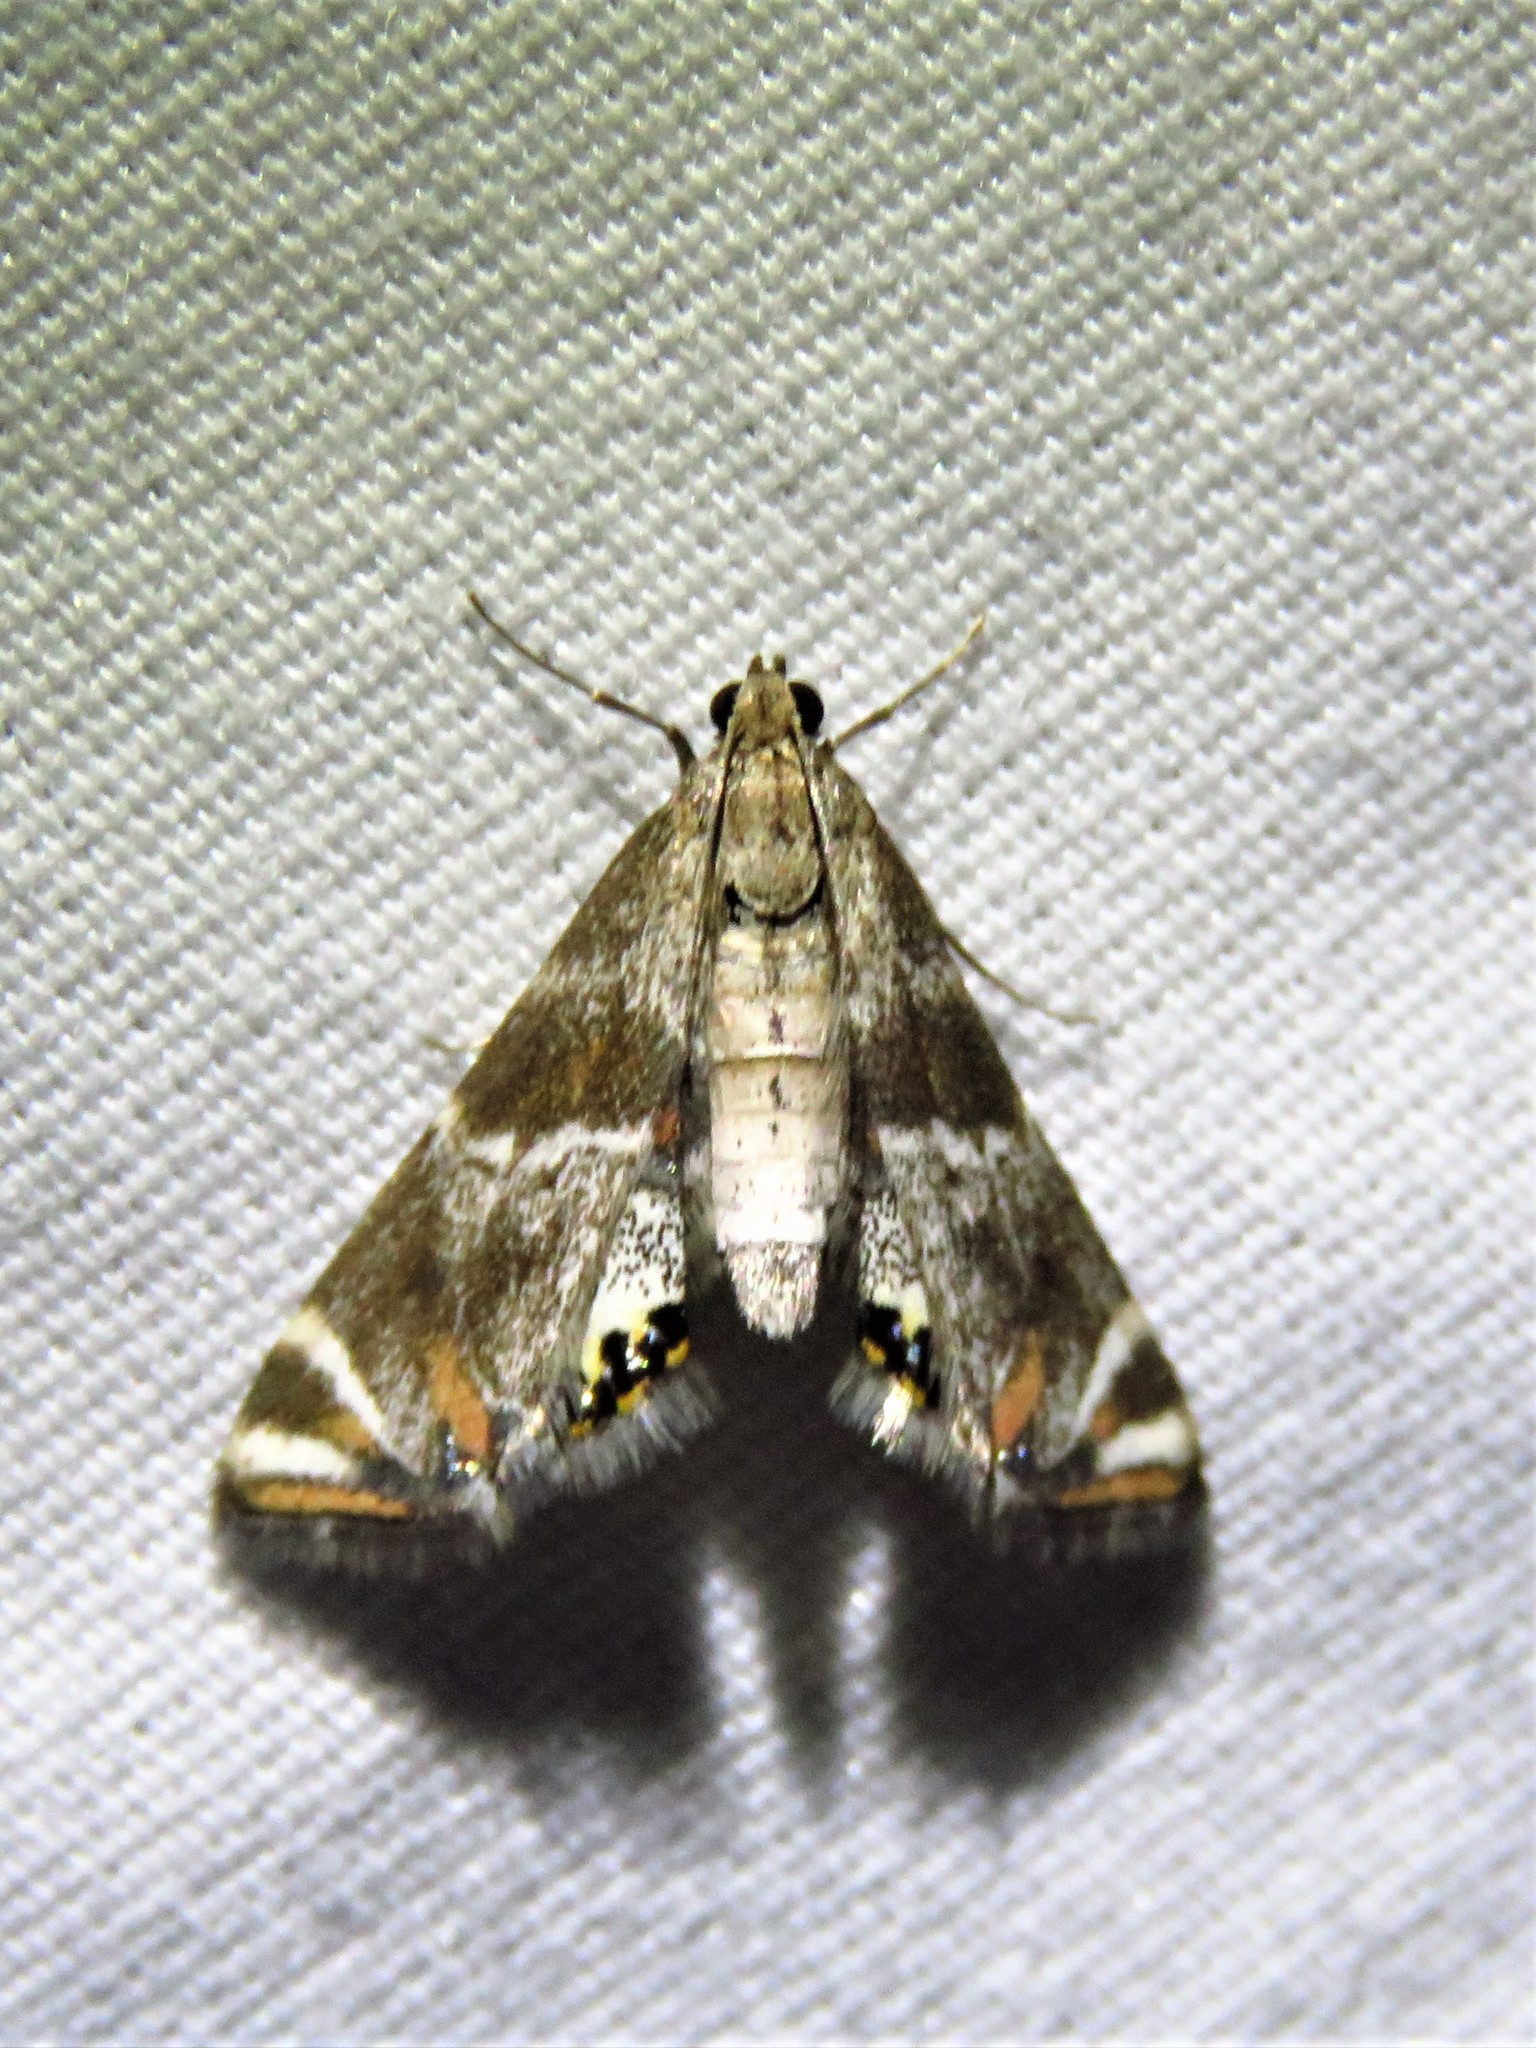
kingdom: Animalia
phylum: Arthropoda
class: Insecta
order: Lepidoptera
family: Crambidae
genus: Petrophila
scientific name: Petrophila jaliscalis
